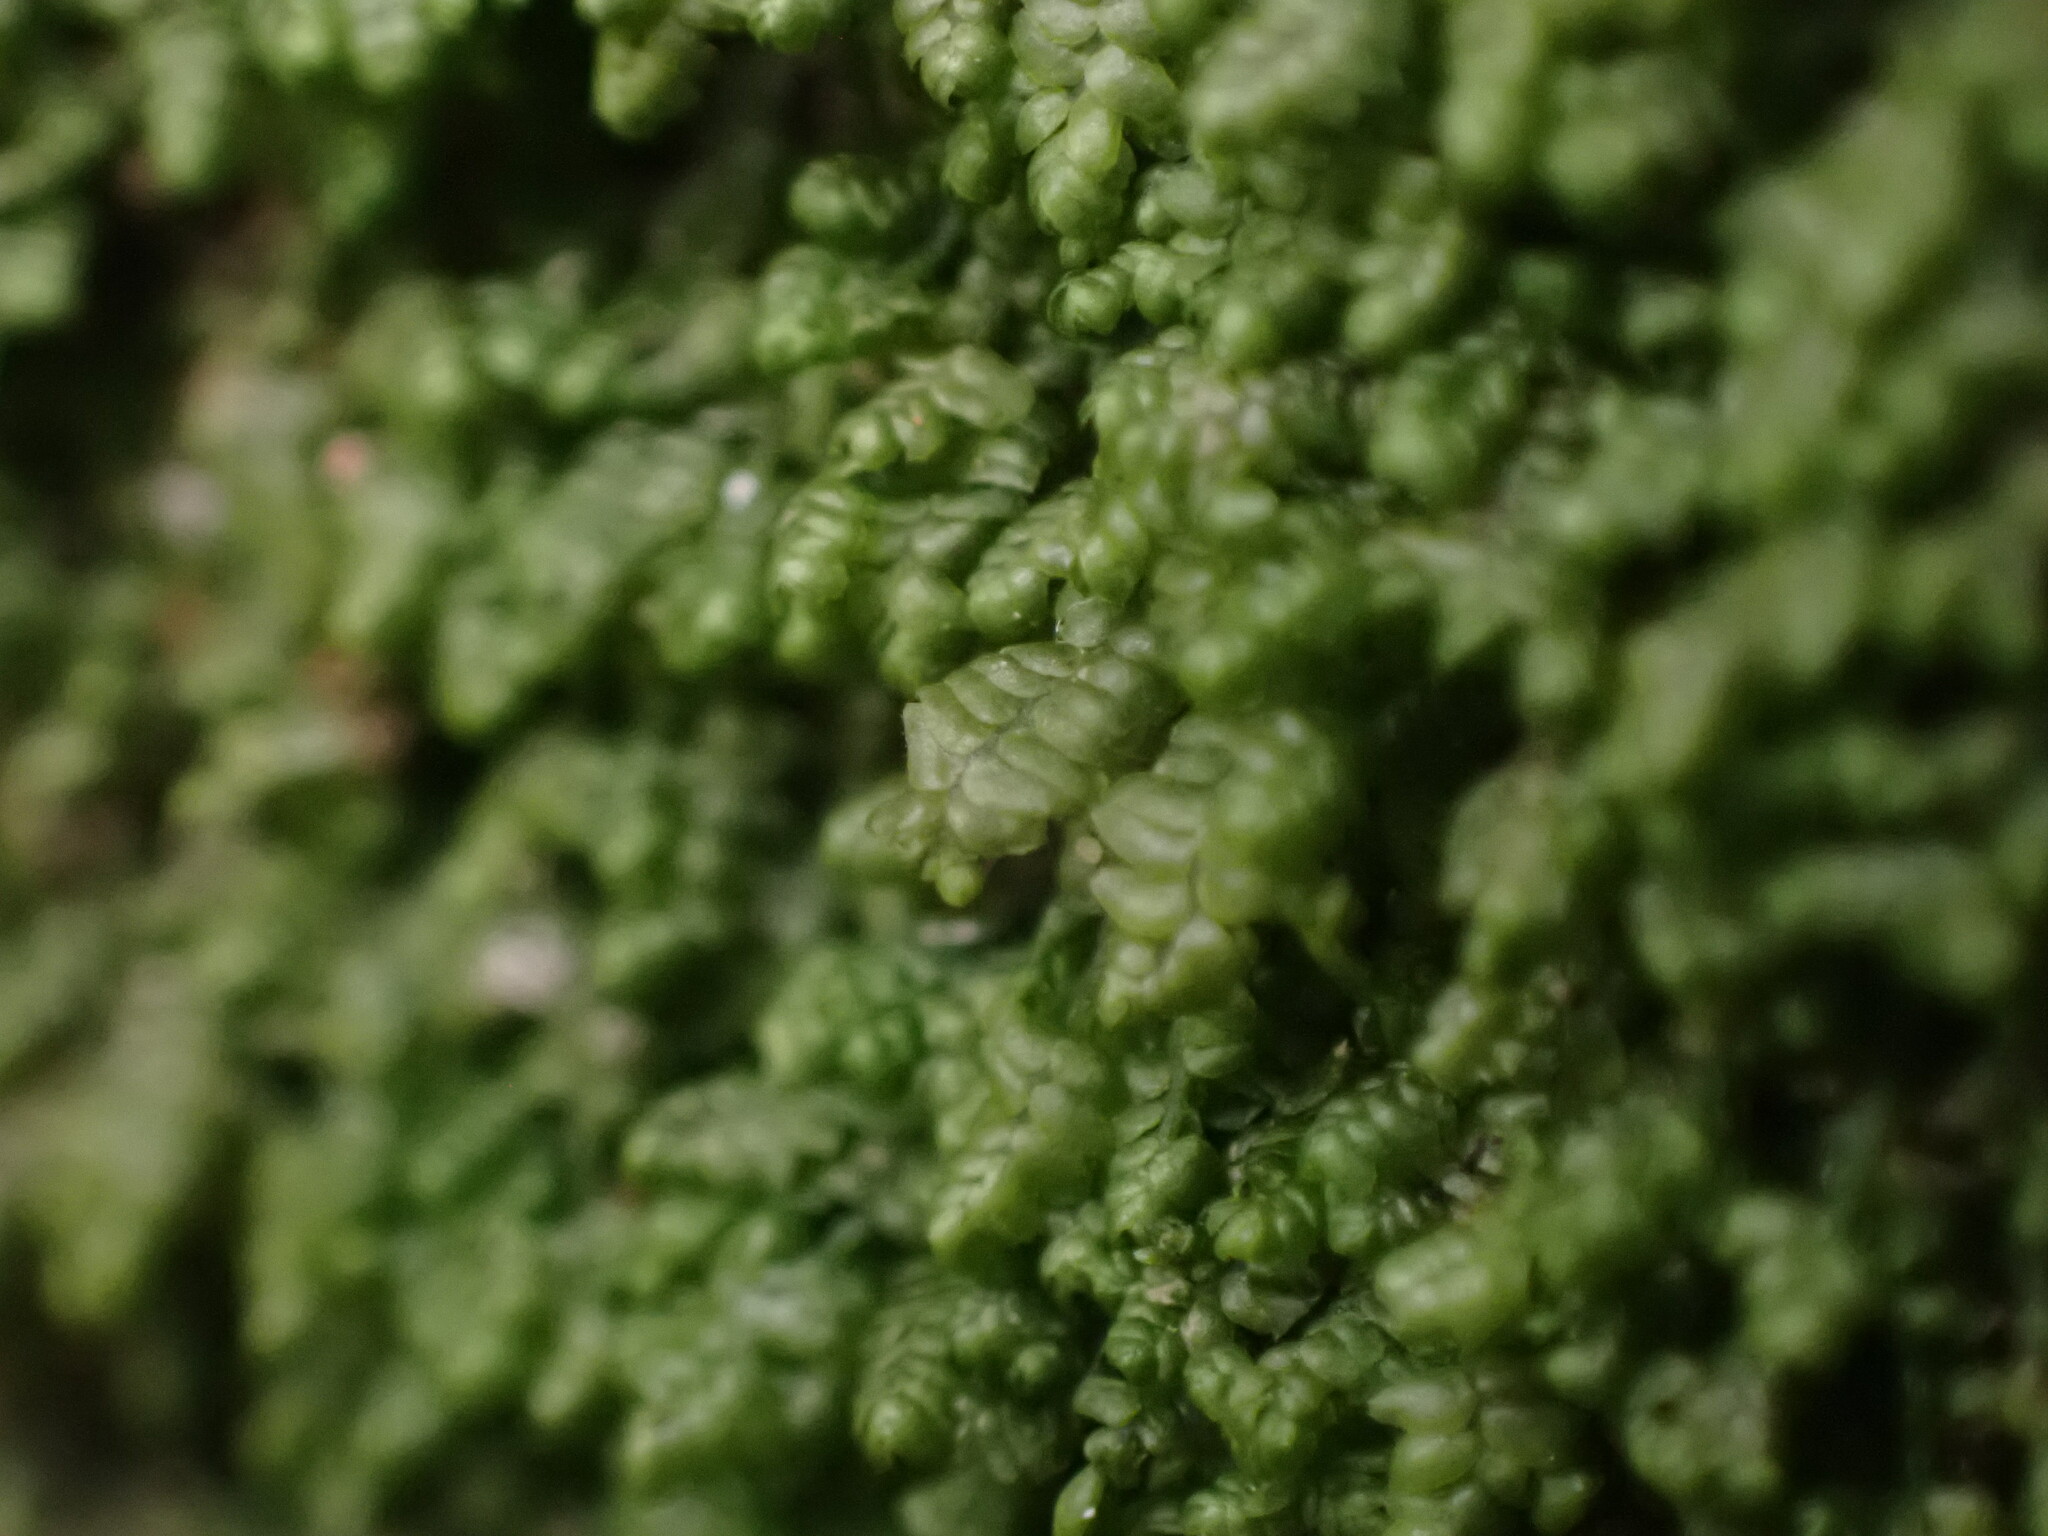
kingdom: Plantae
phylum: Marchantiophyta
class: Jungermanniopsida
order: Jungermanniales
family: Lepidoziaceae
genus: Bazzania
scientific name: Bazzania denudata
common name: Naked whipwort
